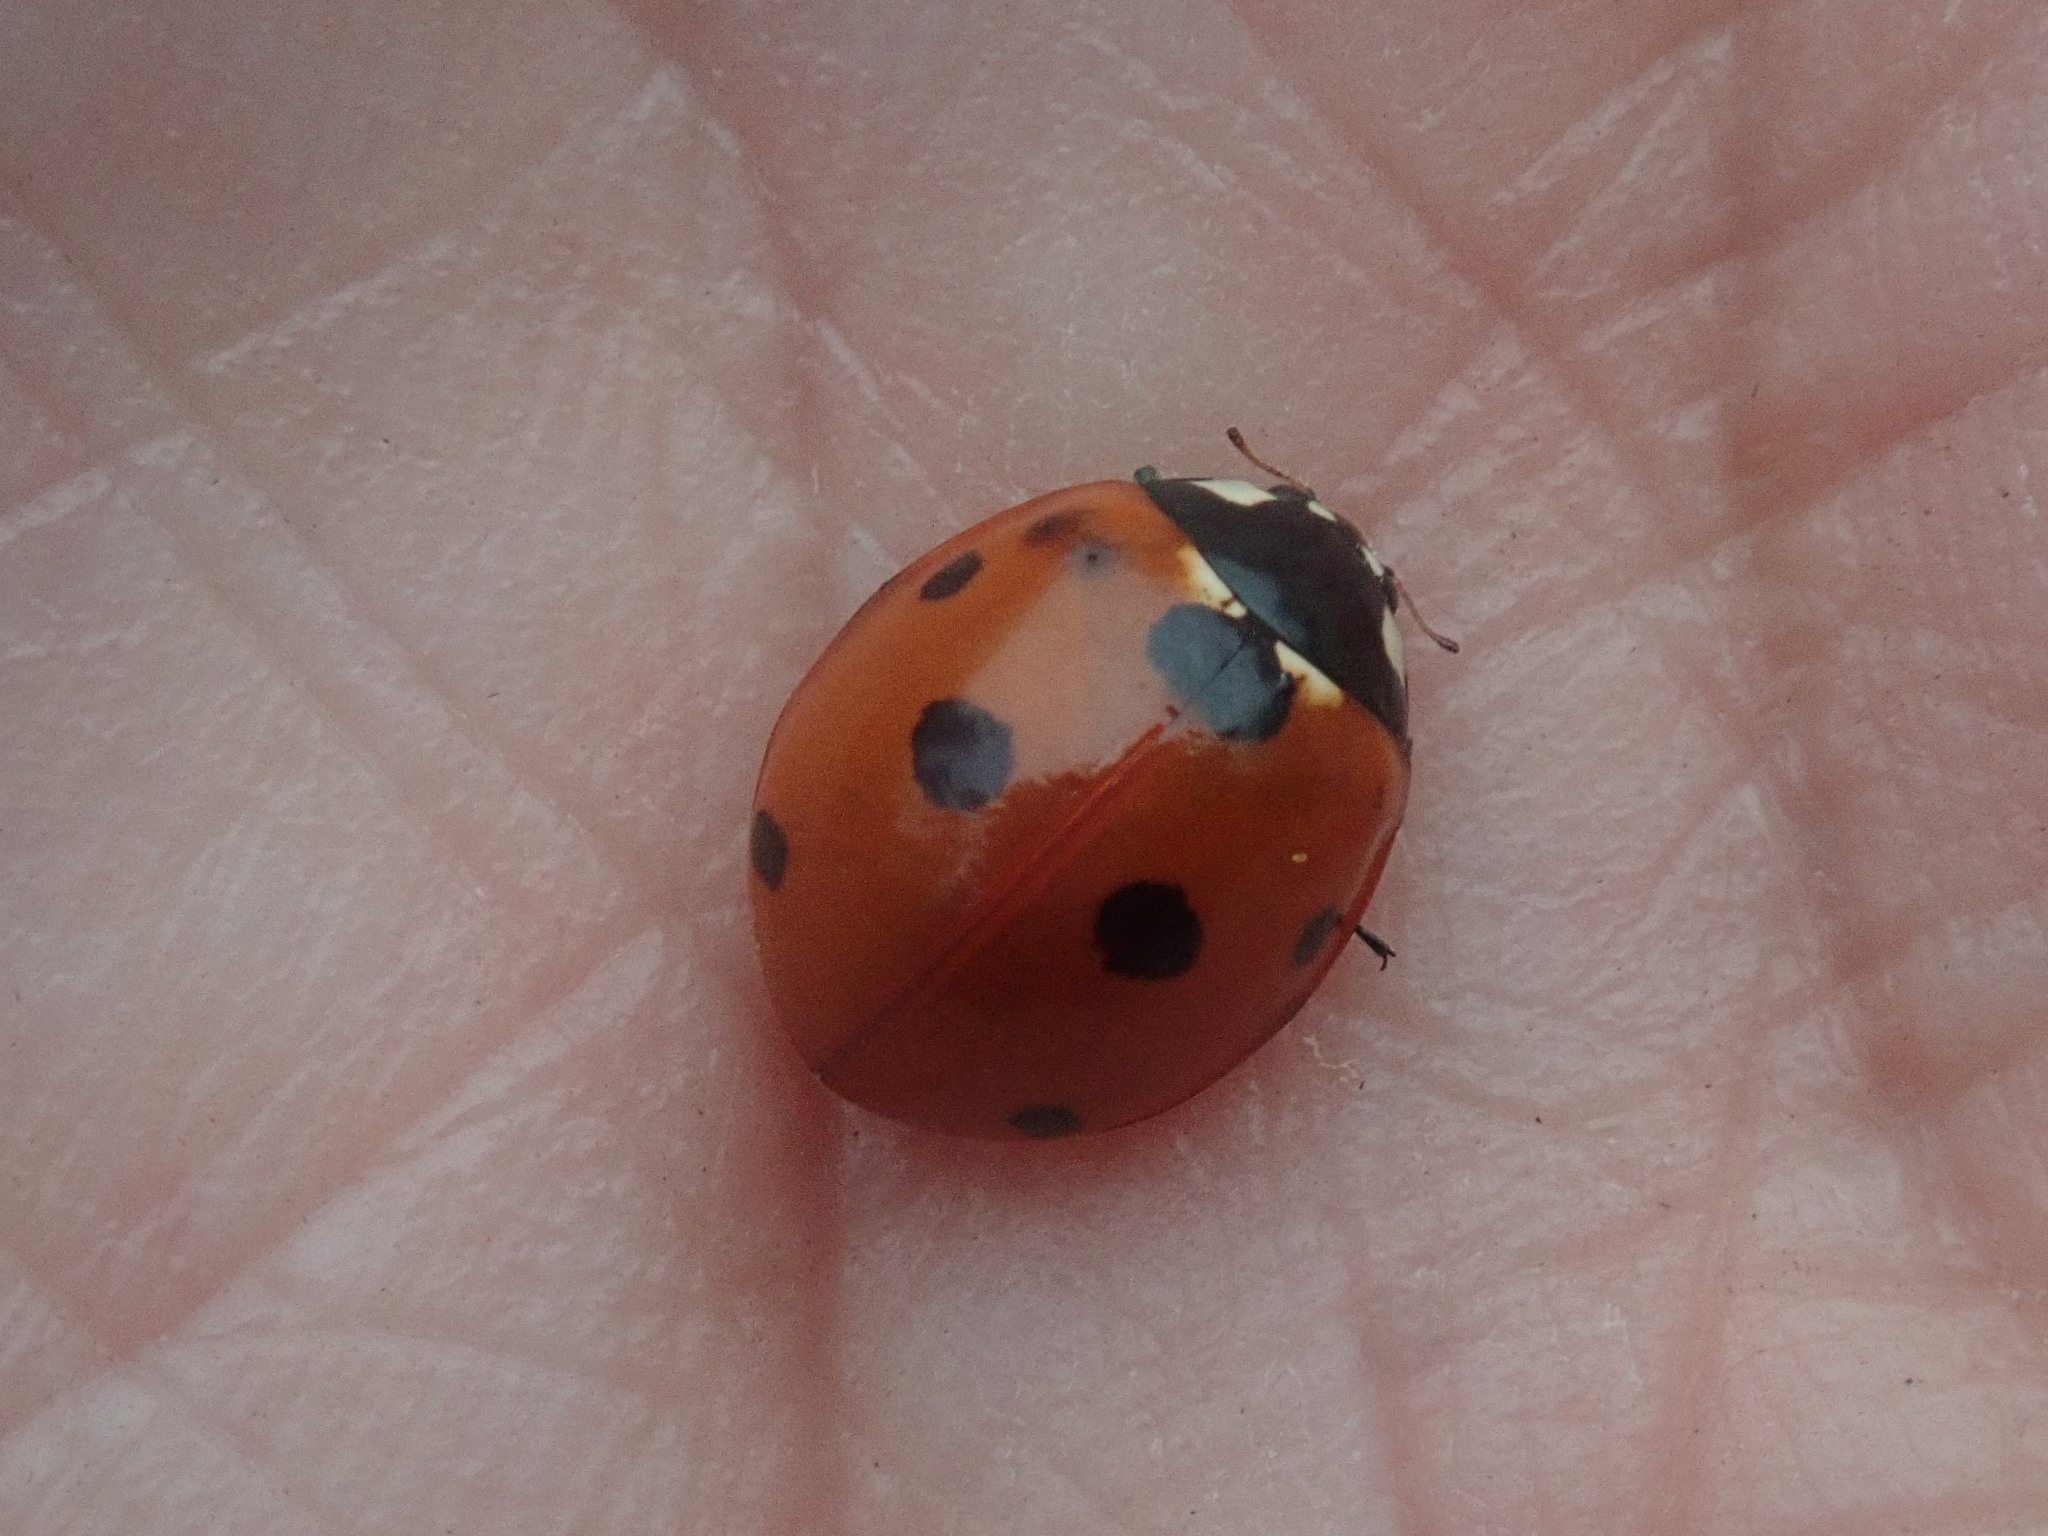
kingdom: Animalia
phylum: Arthropoda
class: Insecta
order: Coleoptera
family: Coccinellidae
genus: Coccinella
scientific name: Coccinella septempunctata
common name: Sevenspotted lady beetle
